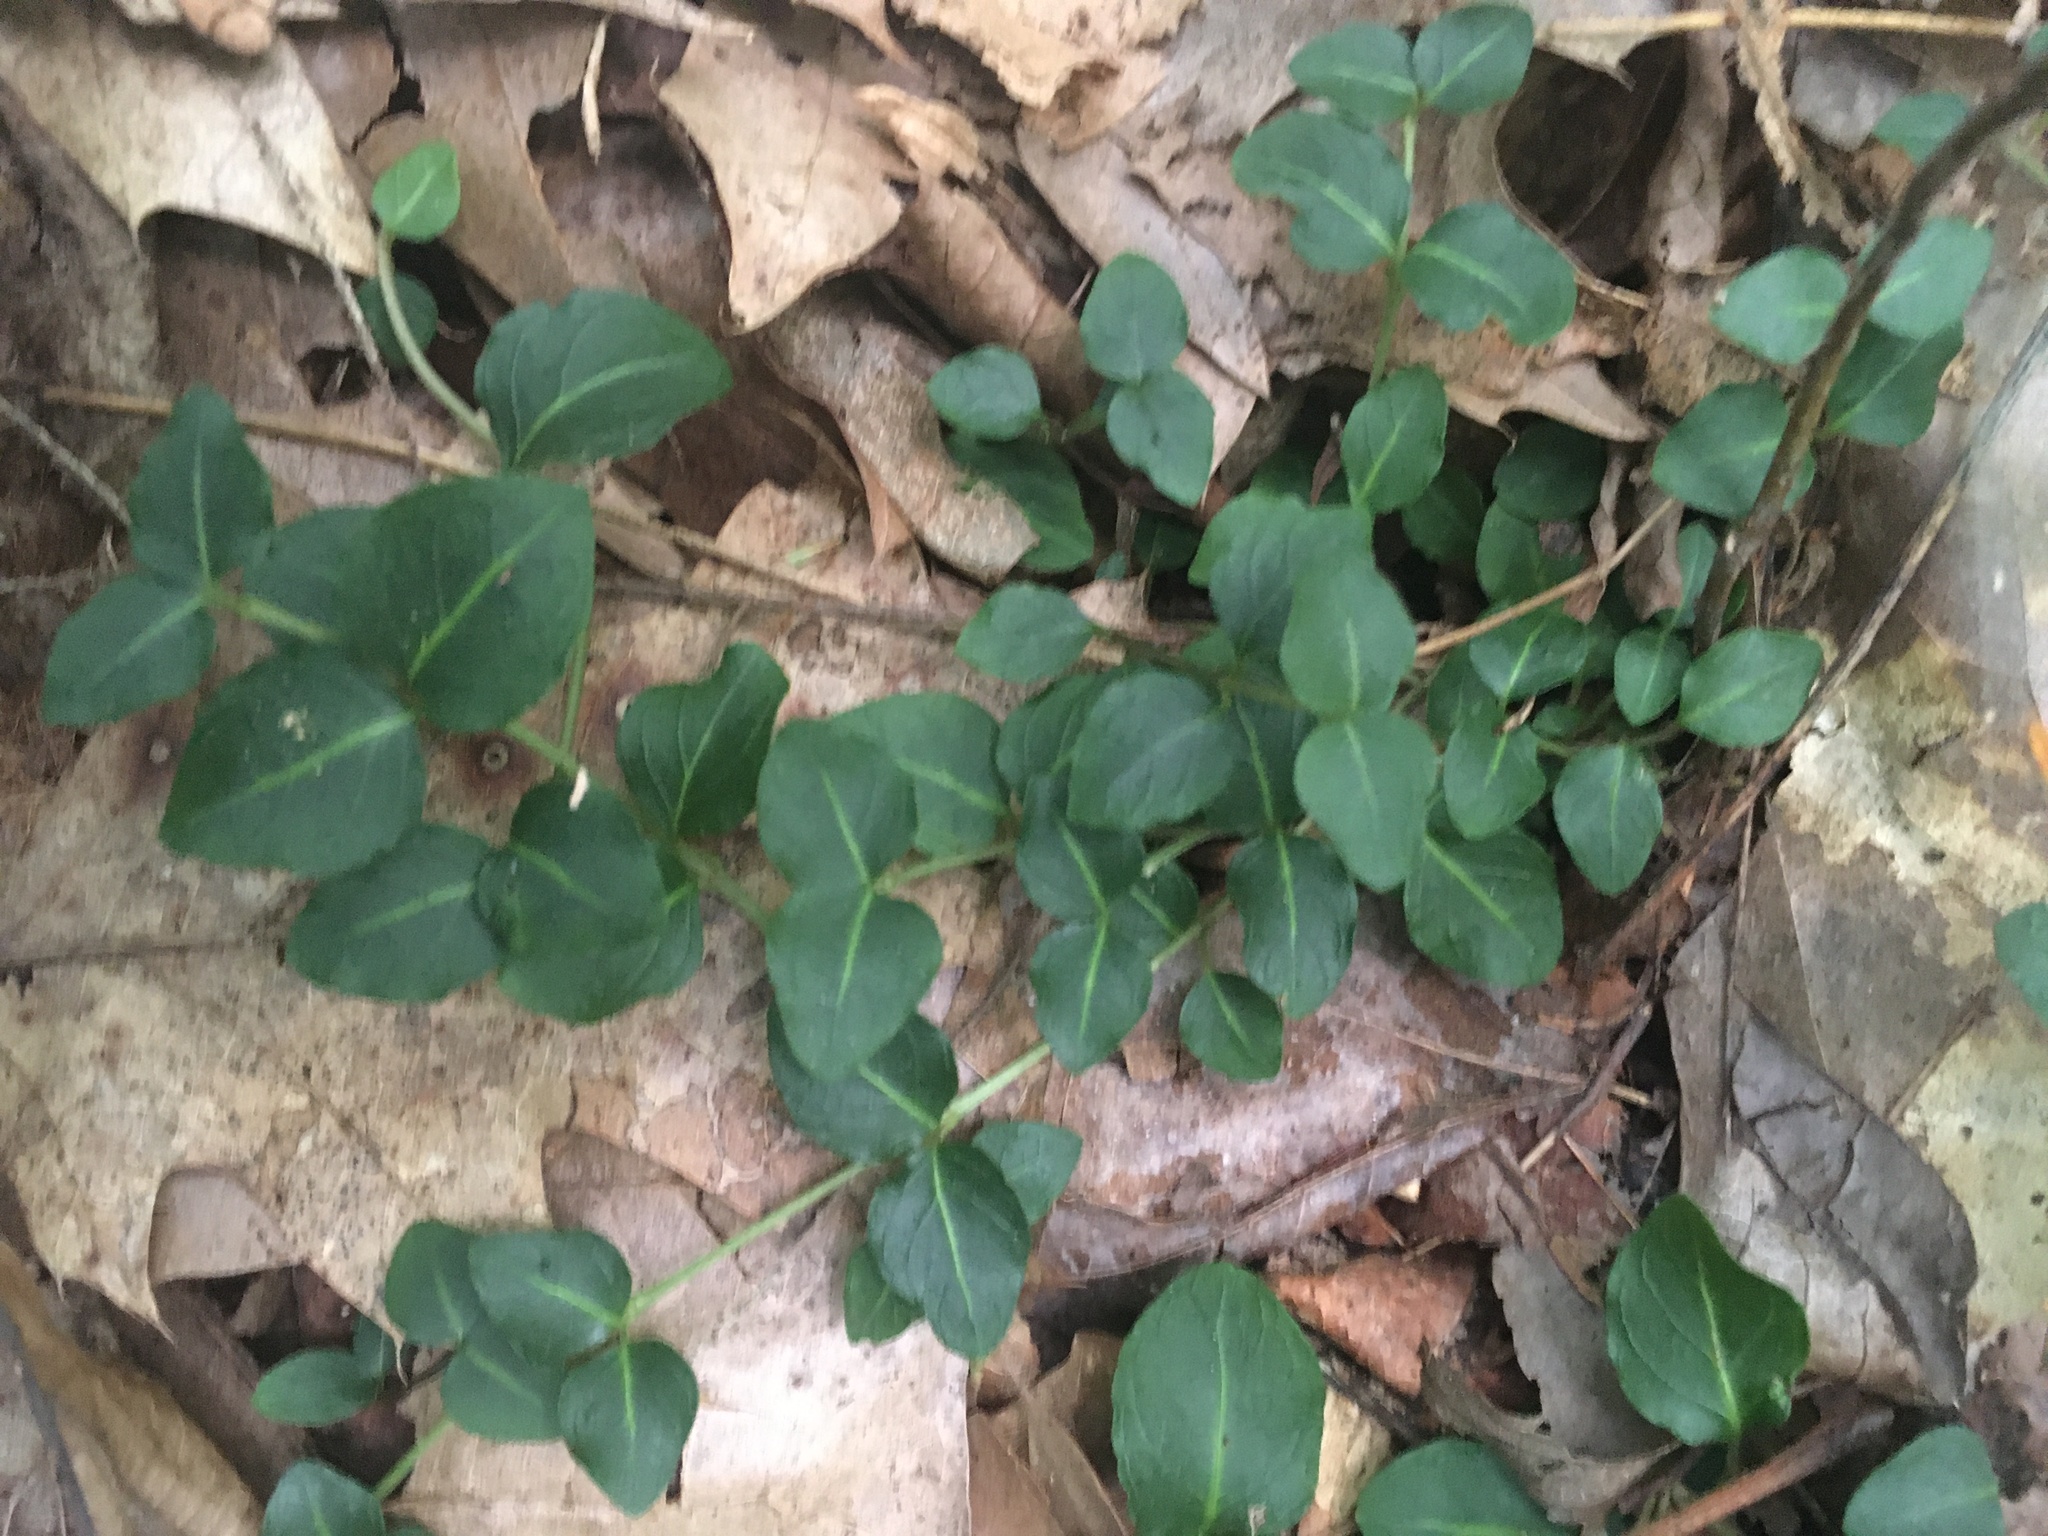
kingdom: Plantae
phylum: Tracheophyta
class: Magnoliopsida
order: Gentianales
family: Rubiaceae
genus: Mitchella
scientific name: Mitchella repens
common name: Partridge-berry
